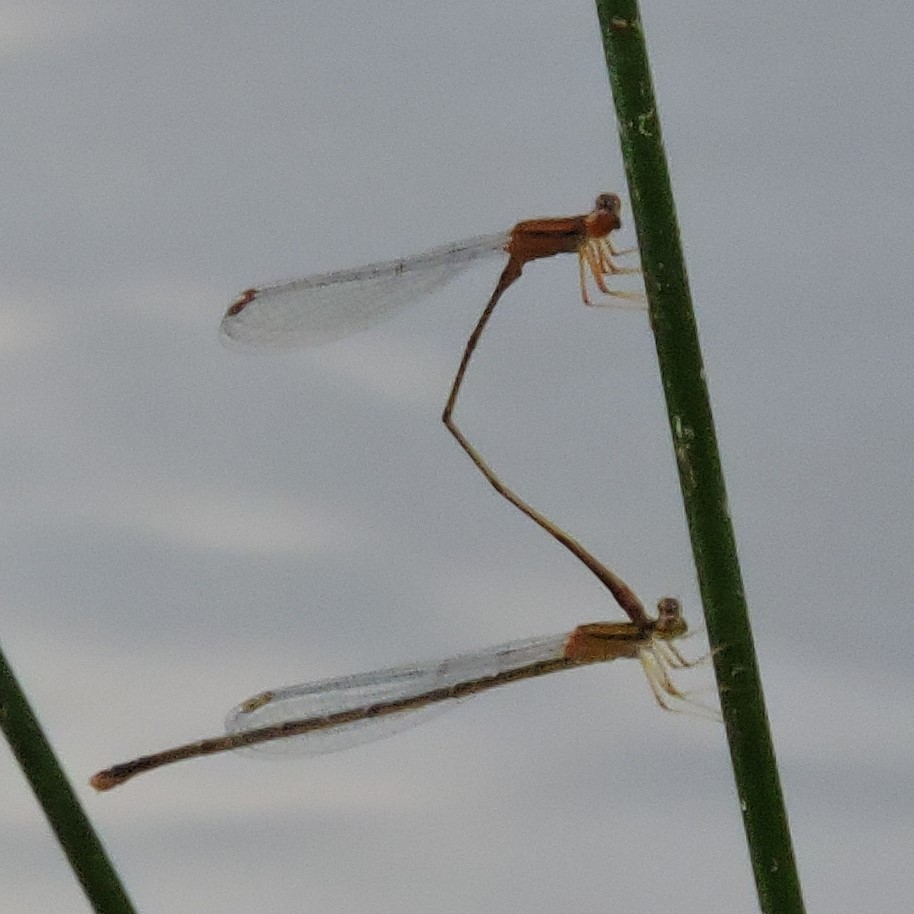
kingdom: Animalia
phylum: Arthropoda
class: Insecta
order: Odonata
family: Coenagrionidae
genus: Enallagma
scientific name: Enallagma signatum
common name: Orange bluet
